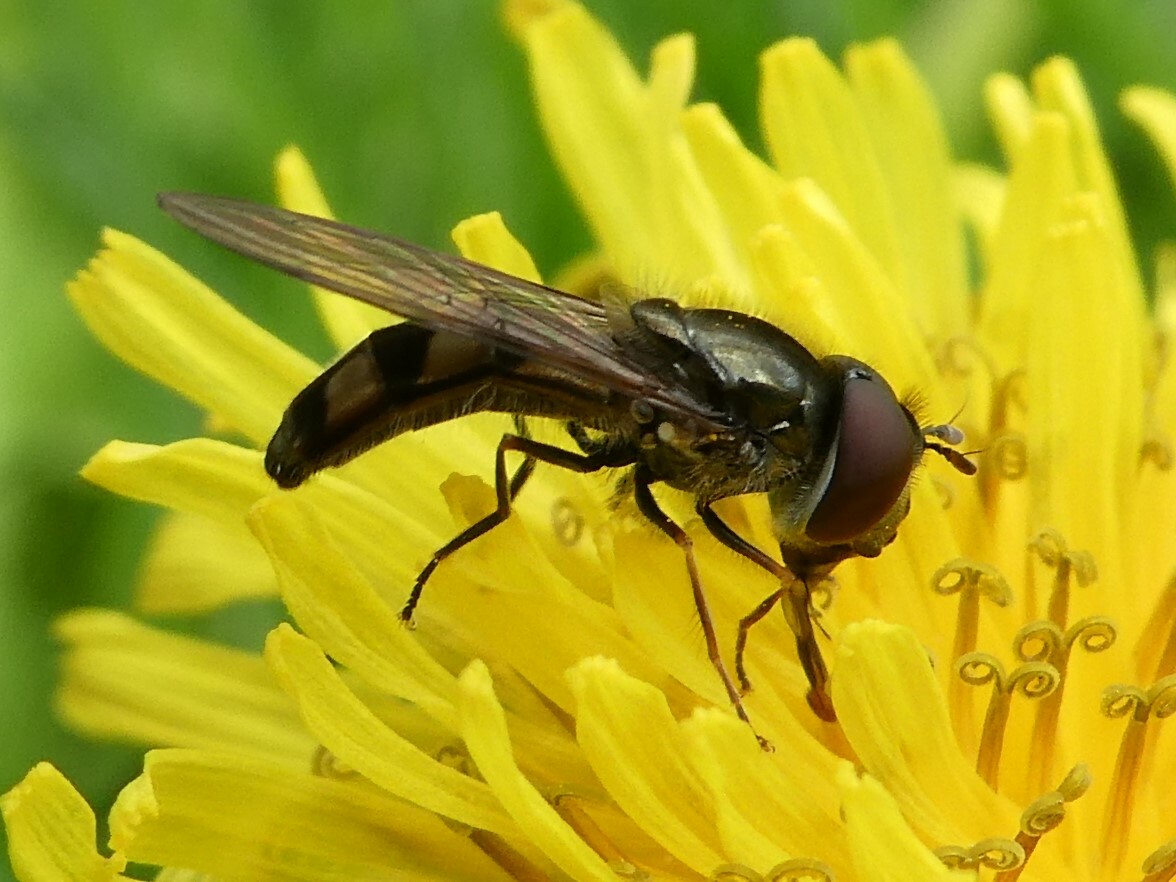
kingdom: Animalia
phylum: Arthropoda
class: Insecta
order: Diptera
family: Syrphidae
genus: Platycheirus
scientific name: Platycheirus
